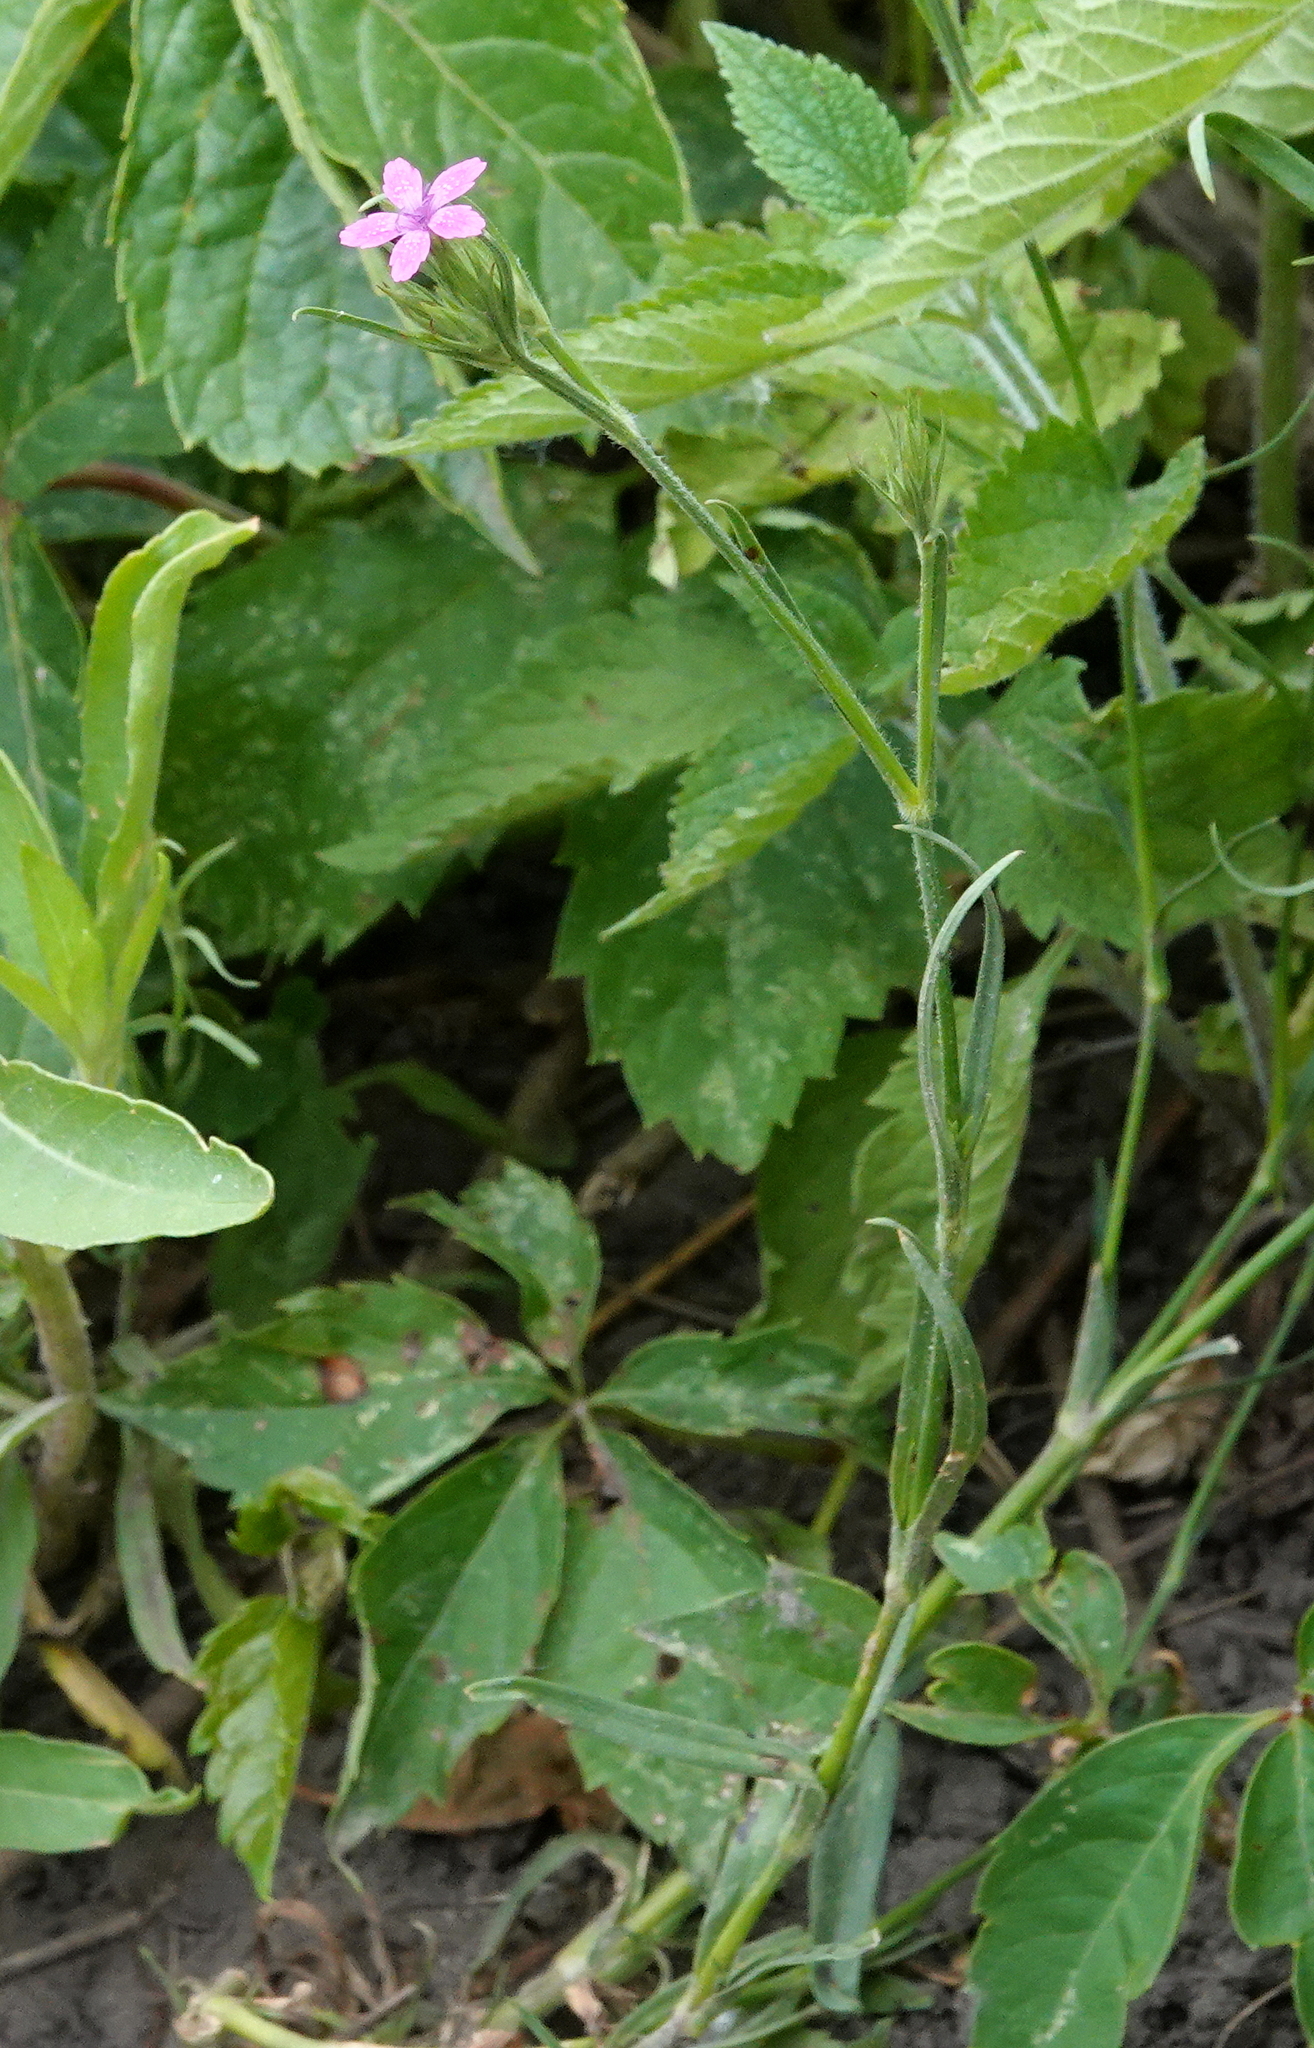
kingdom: Plantae
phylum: Tracheophyta
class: Magnoliopsida
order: Caryophyllales
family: Caryophyllaceae
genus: Dianthus
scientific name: Dianthus armeria
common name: Deptford pink
